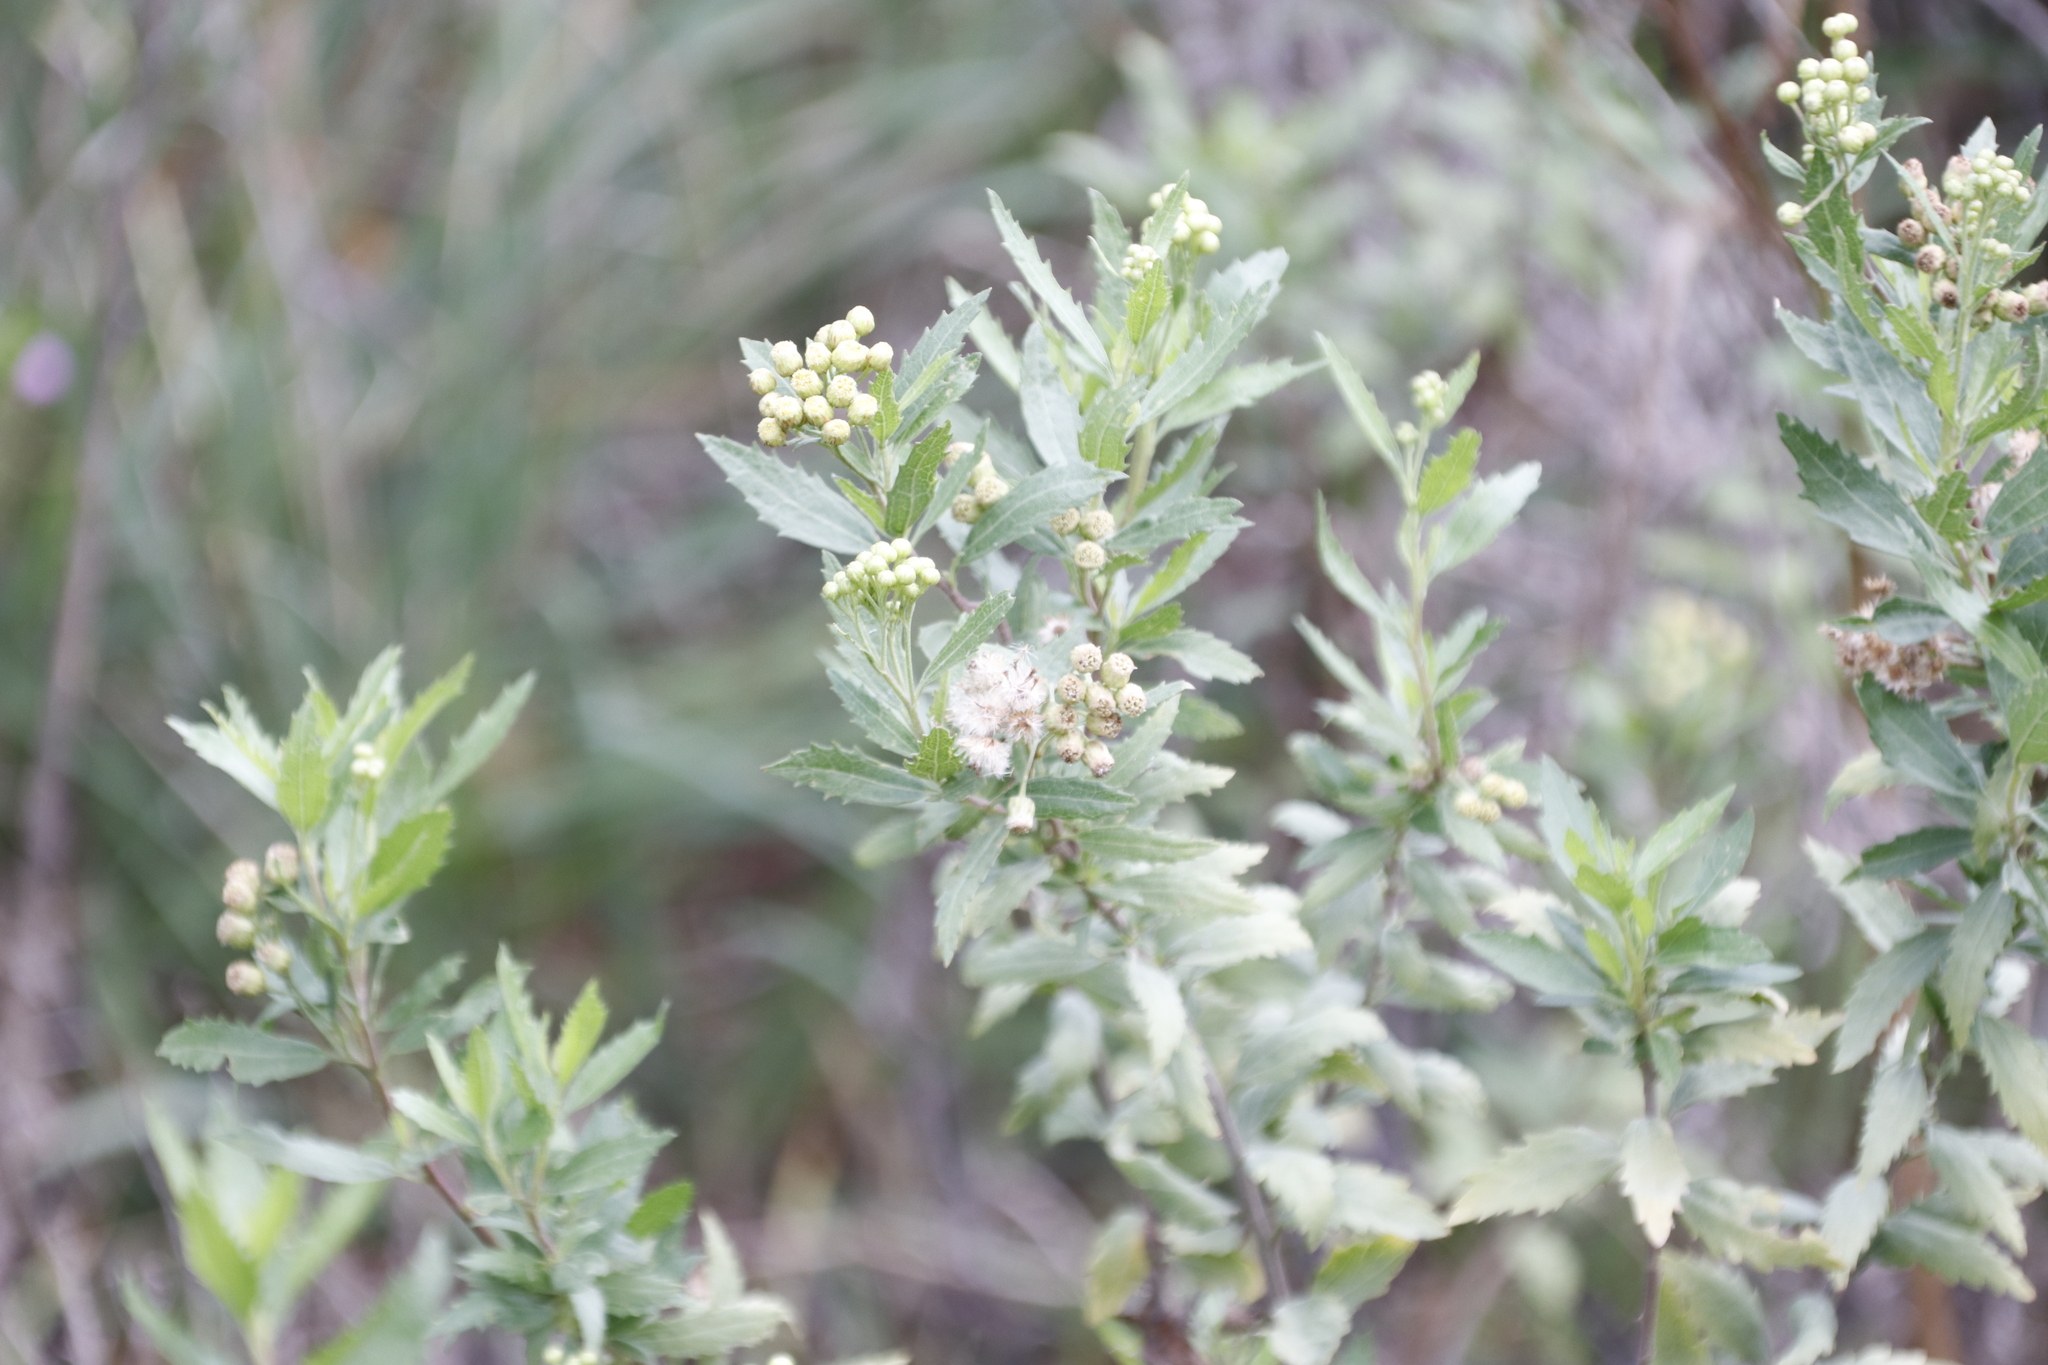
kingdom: Plantae
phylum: Tracheophyta
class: Magnoliopsida
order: Asterales
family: Asteraceae
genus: Nidorella
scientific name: Nidorella ivifolia
